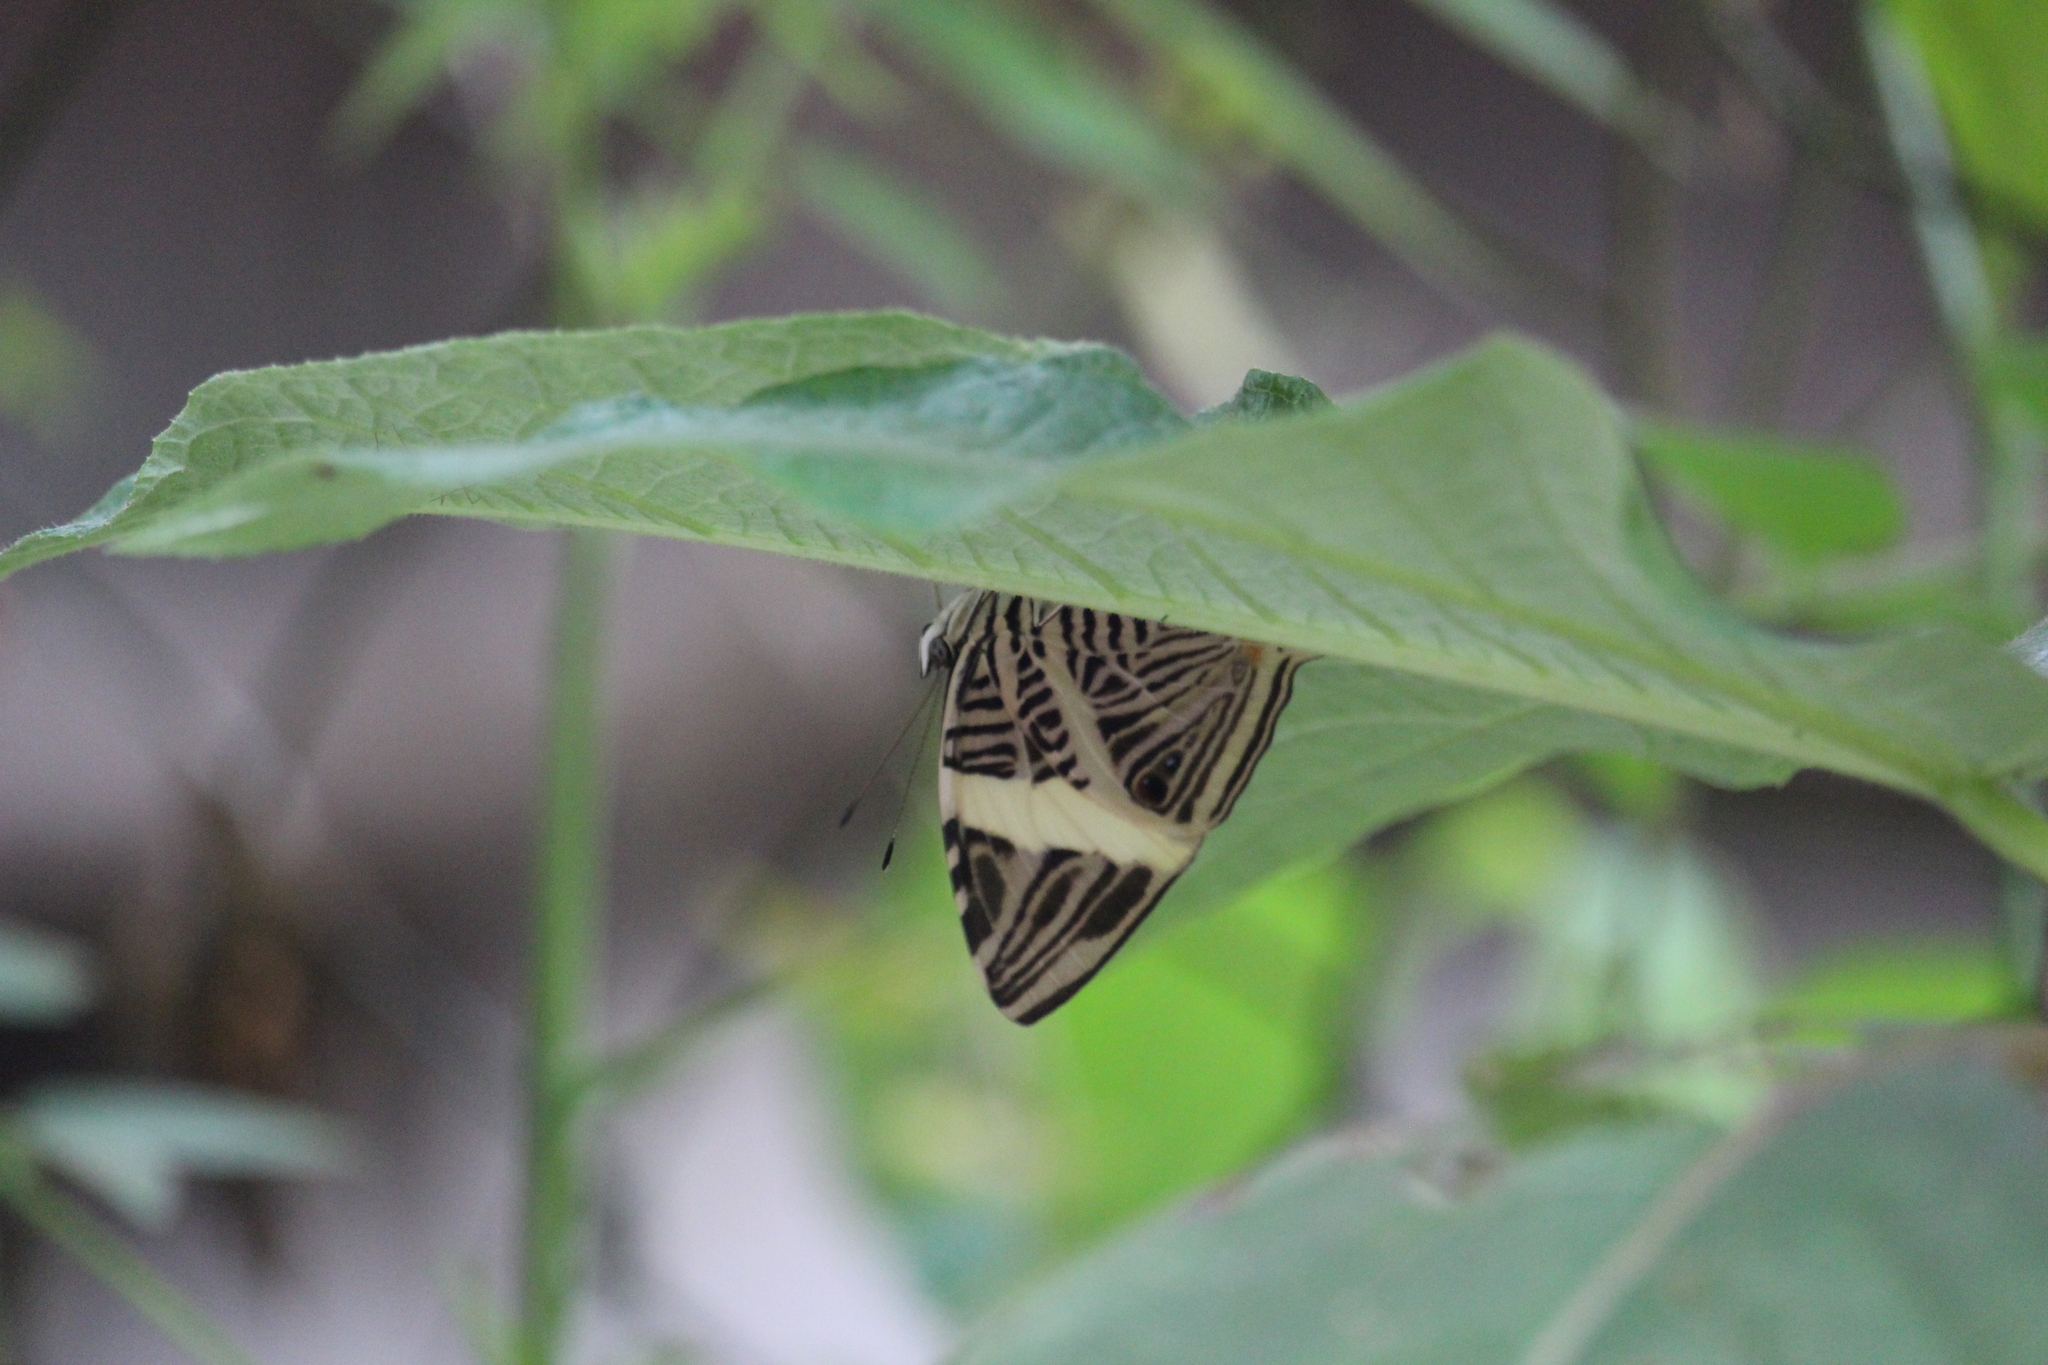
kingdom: Animalia
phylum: Arthropoda
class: Insecta
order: Lepidoptera
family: Nymphalidae
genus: Colobura
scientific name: Colobura dirce
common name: Dirce beauty
